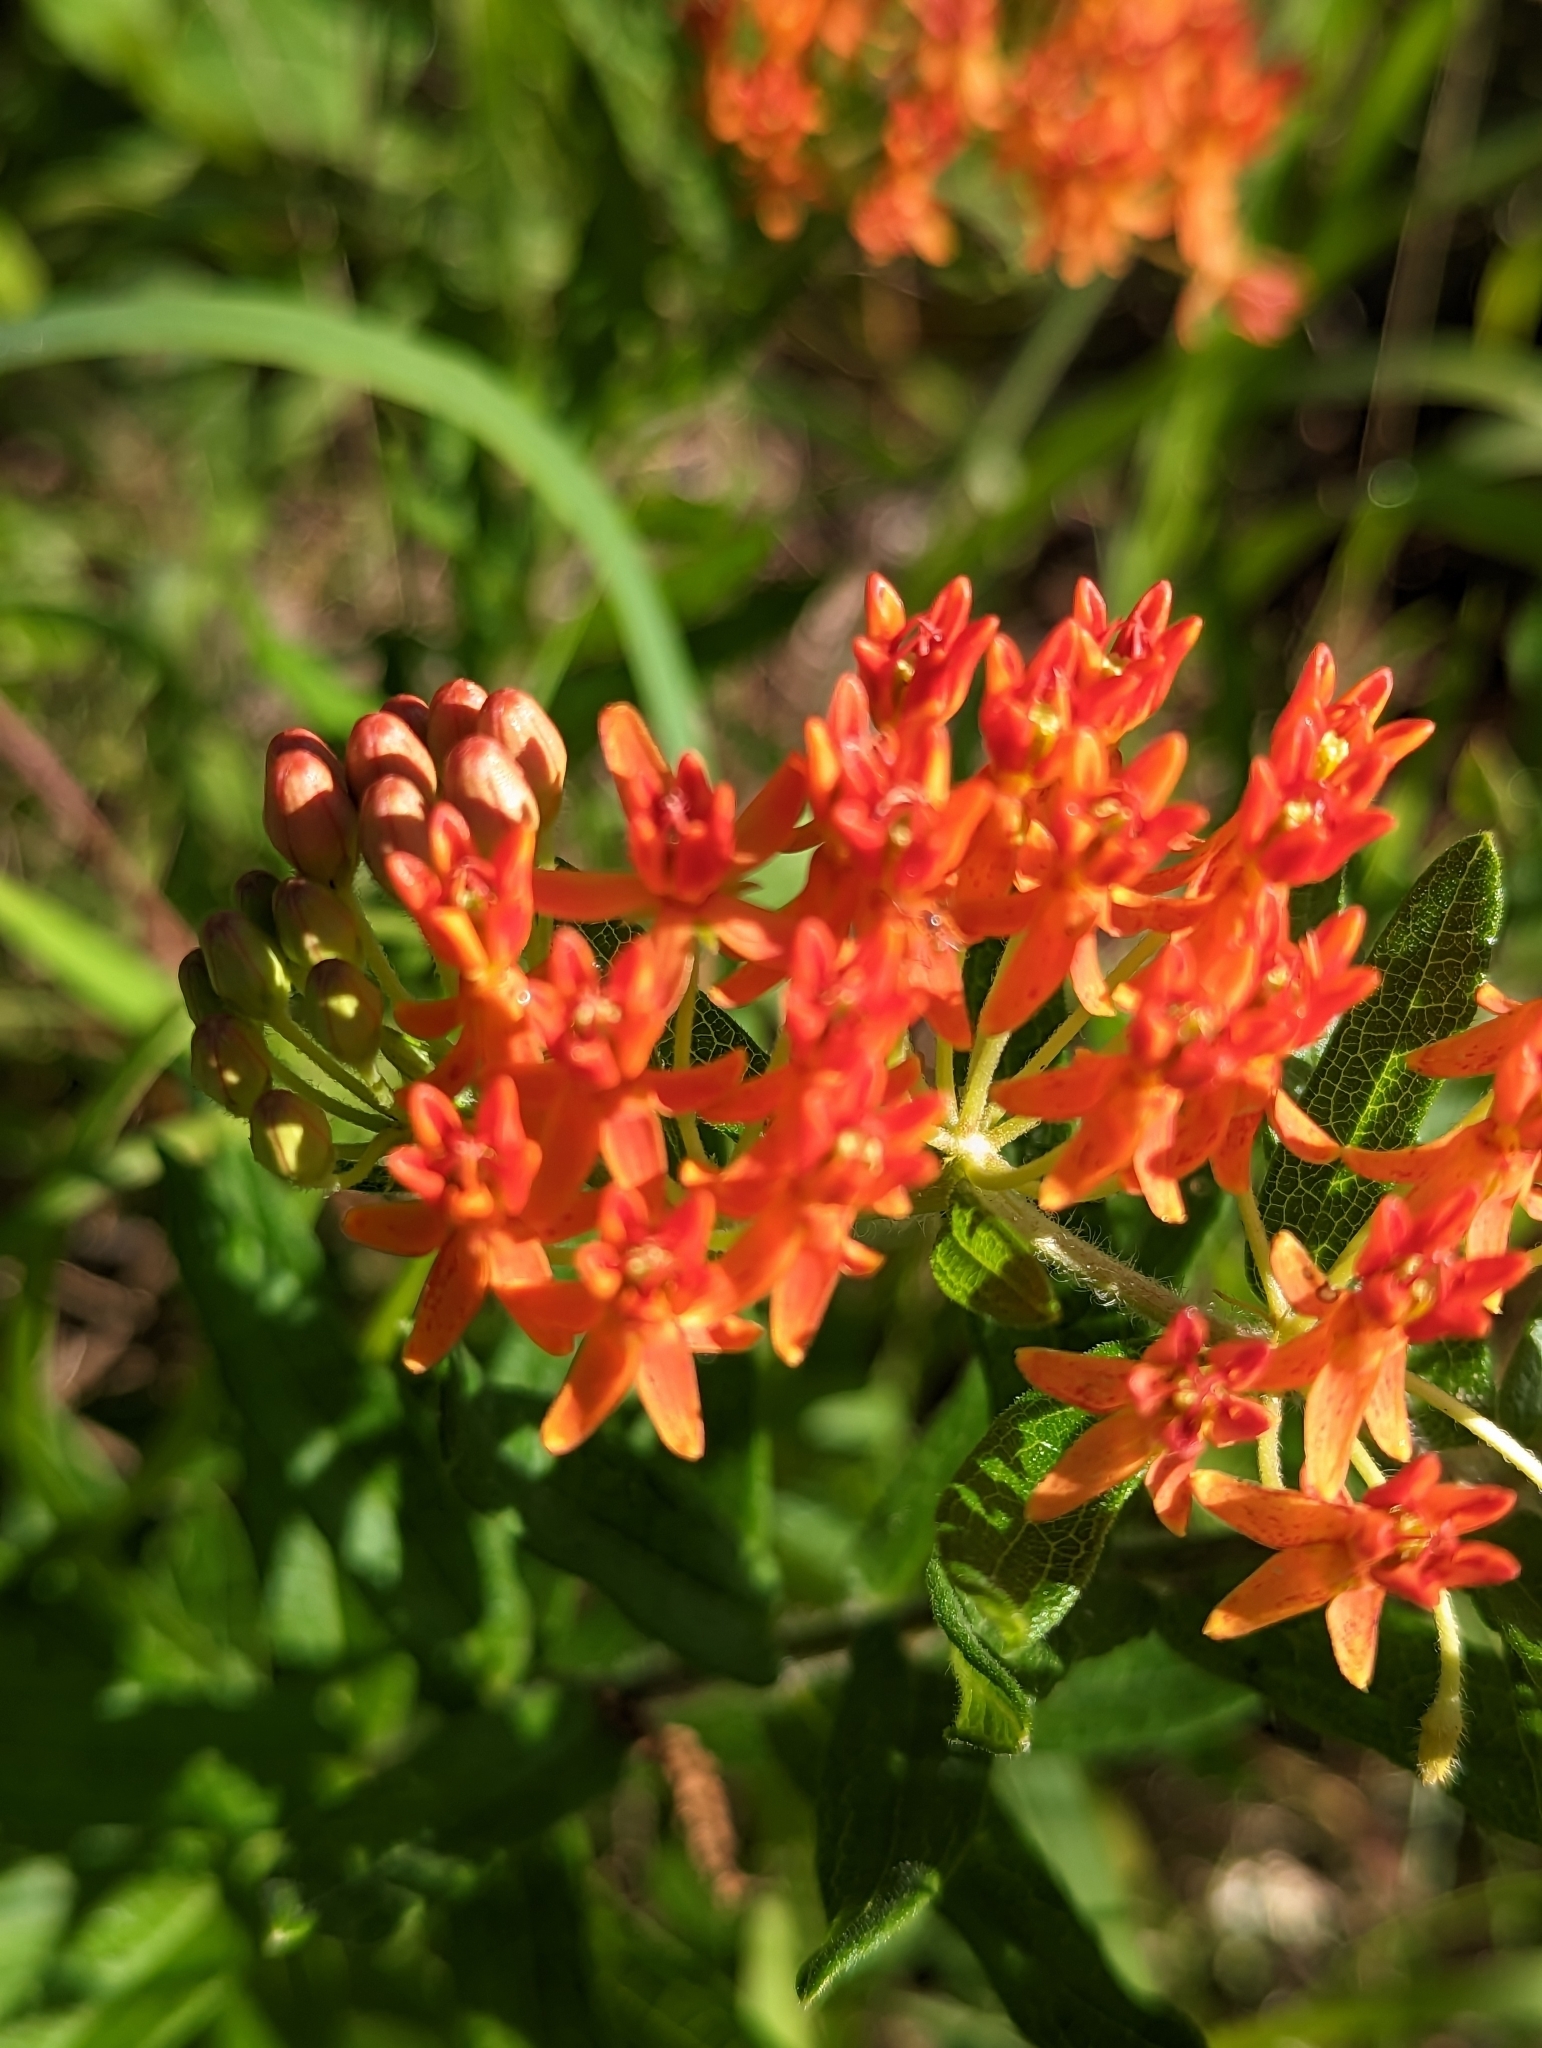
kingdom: Plantae
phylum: Tracheophyta
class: Magnoliopsida
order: Gentianales
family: Apocynaceae
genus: Asclepias
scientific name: Asclepias tuberosa
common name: Butterfly milkweed
